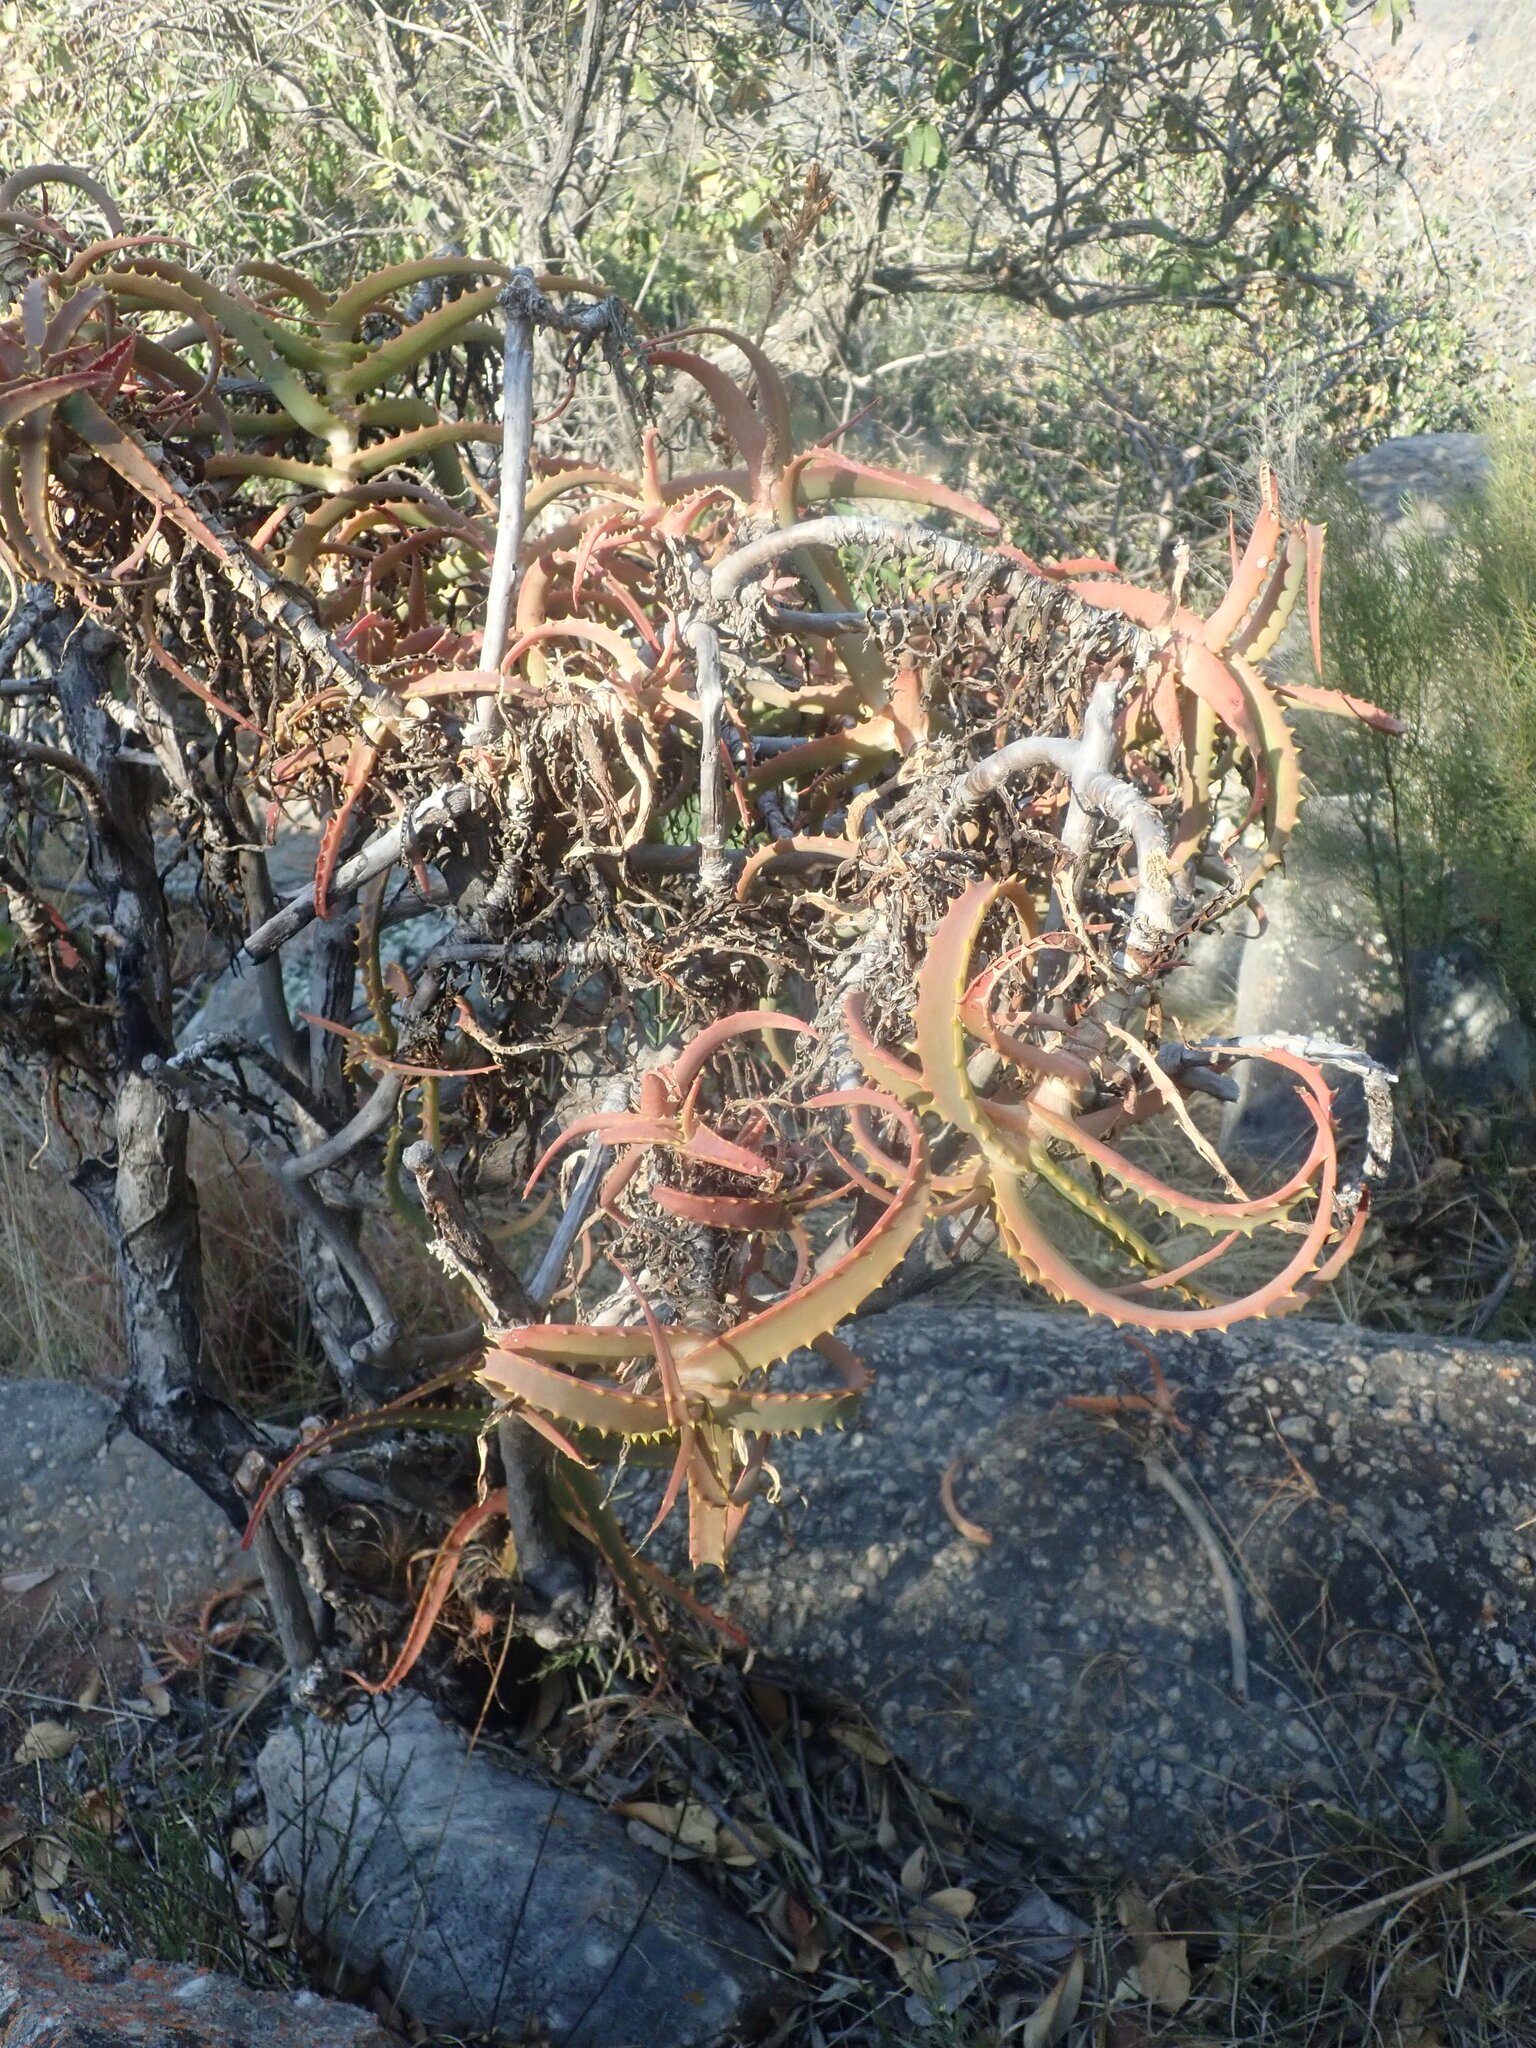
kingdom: Plantae
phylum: Tracheophyta
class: Liliopsida
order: Asparagales
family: Asphodelaceae
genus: Aloe
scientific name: Aloe arborescens
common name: Candelabra aloe
